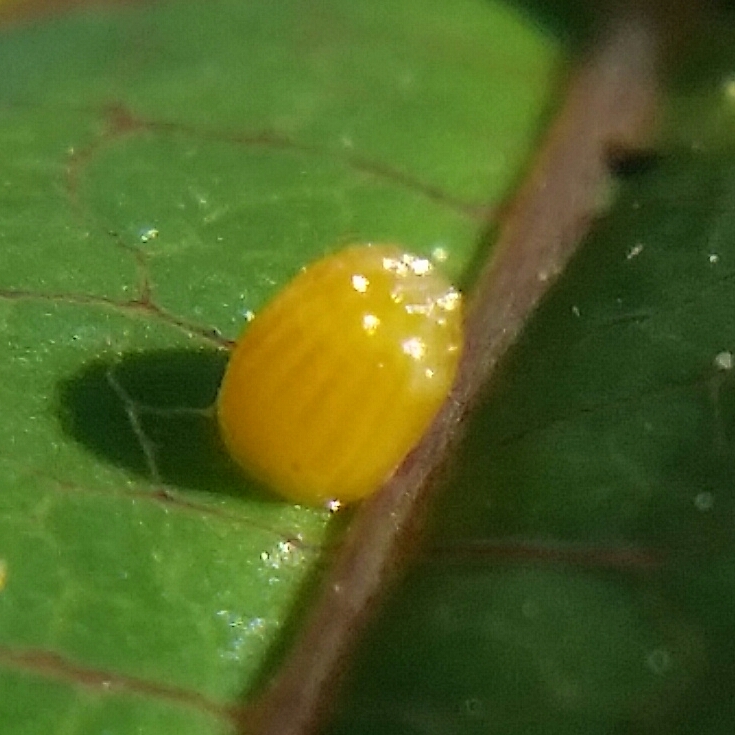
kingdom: Animalia
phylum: Arthropoda
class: Insecta
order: Lepidoptera
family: Nymphalidae
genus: Dione
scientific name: Dione vanillae
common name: Gulf fritillary
